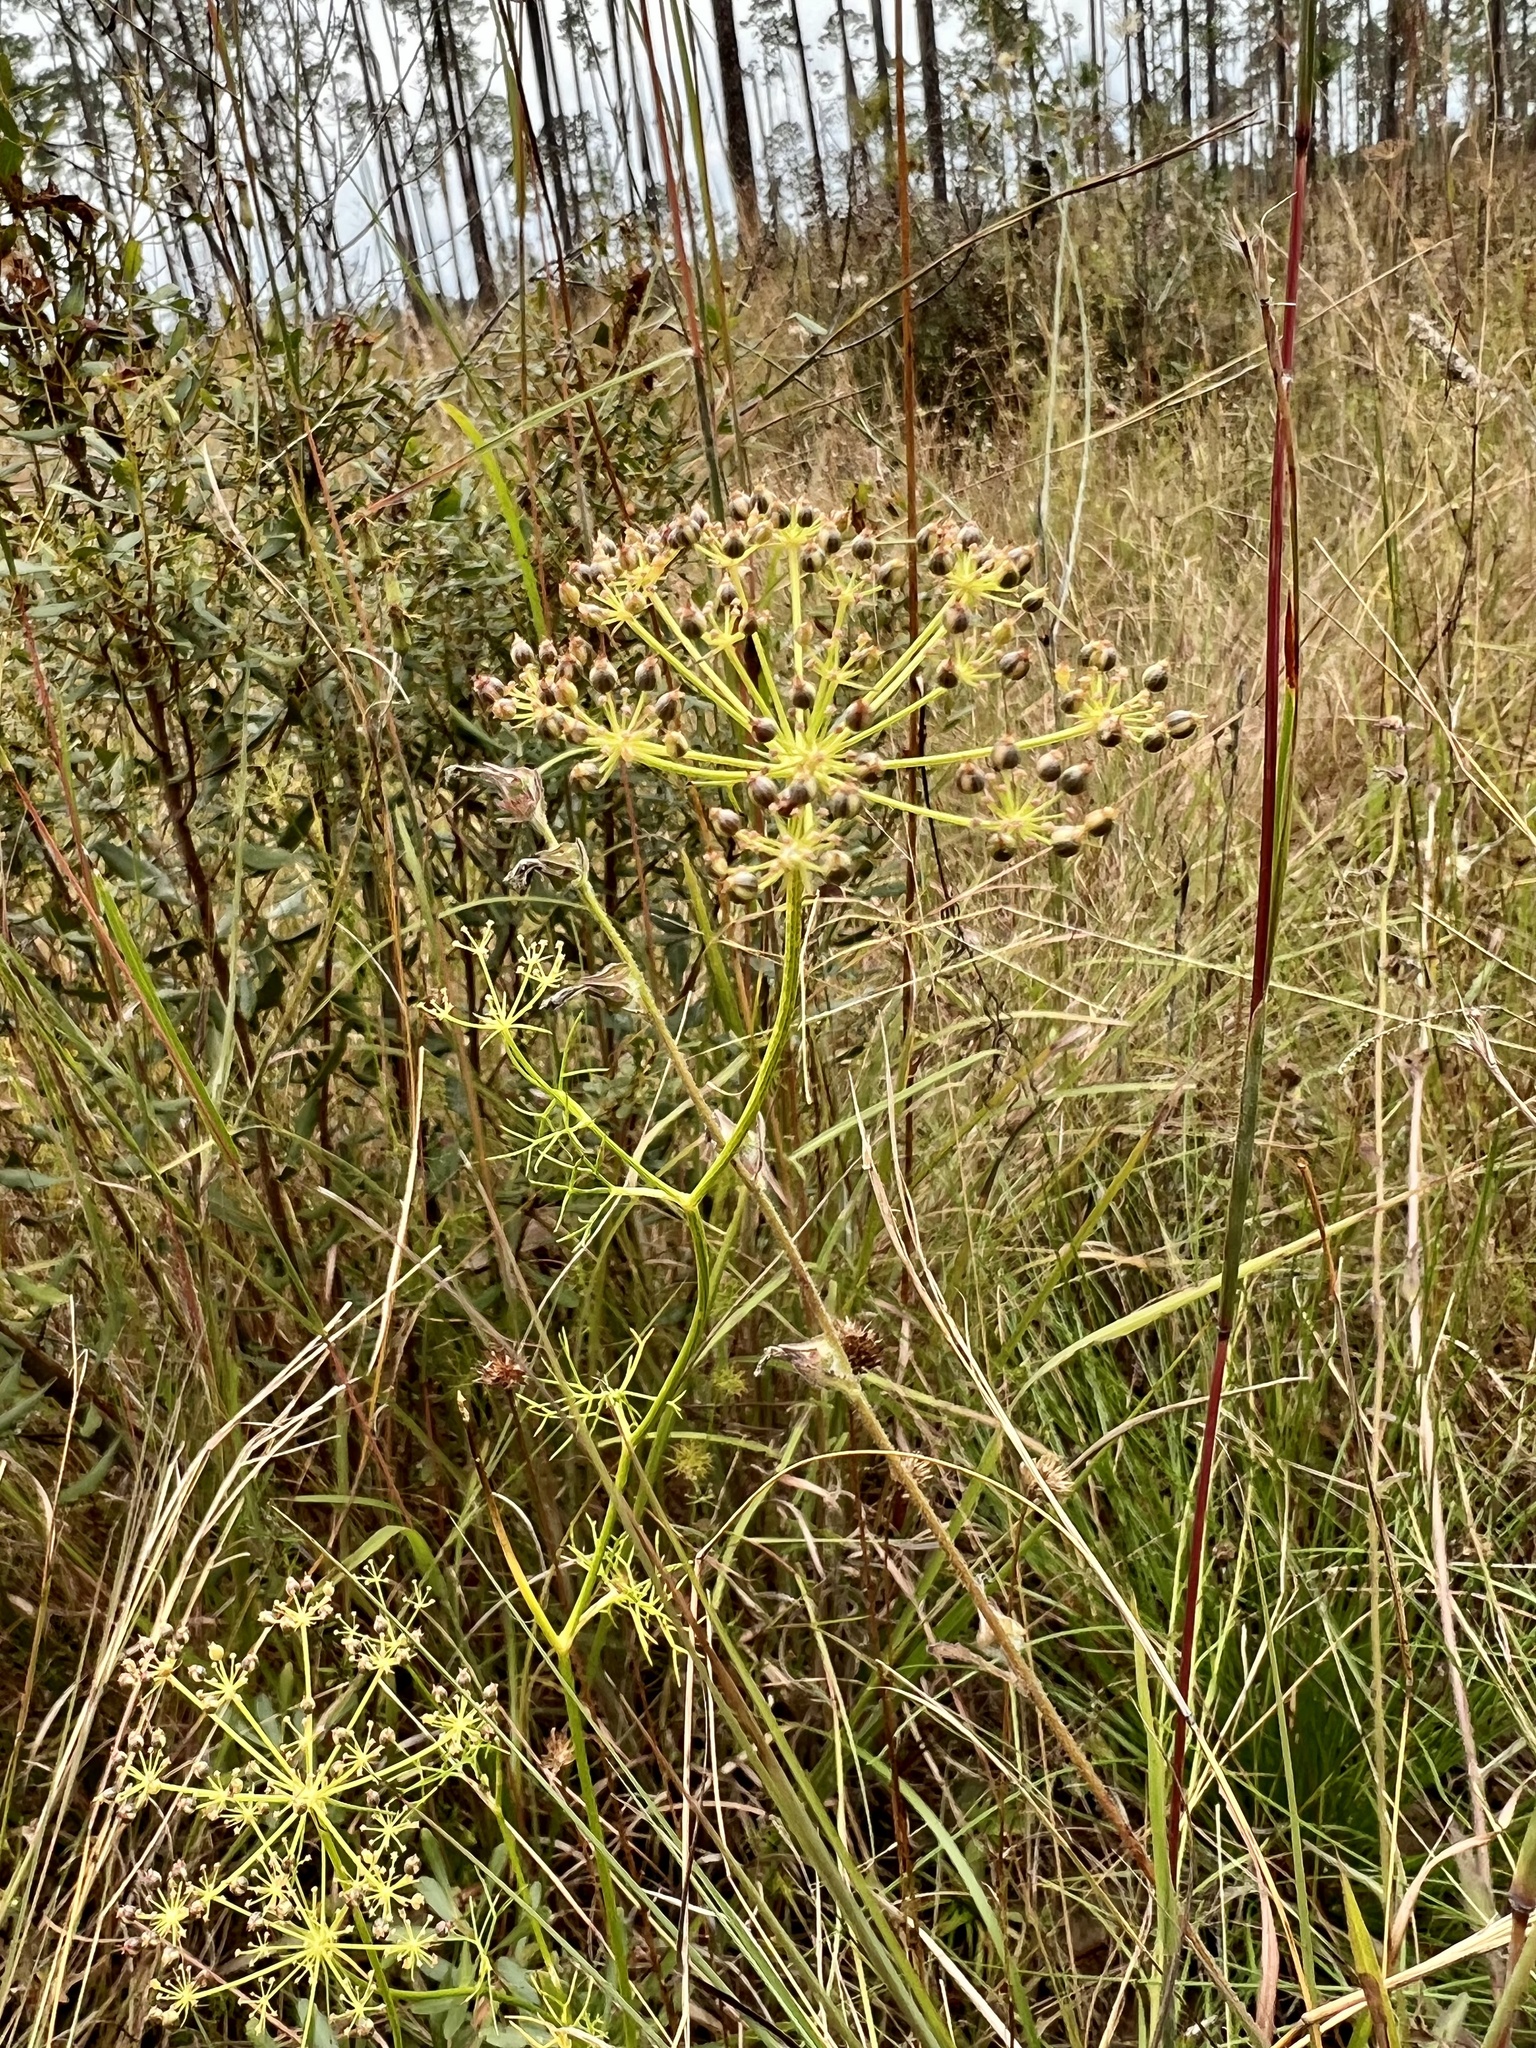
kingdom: Plantae
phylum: Tracheophyta
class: Magnoliopsida
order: Apiales
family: Apiaceae
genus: Ptilimnium
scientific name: Ptilimnium capillaceum
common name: Herbwilliam
